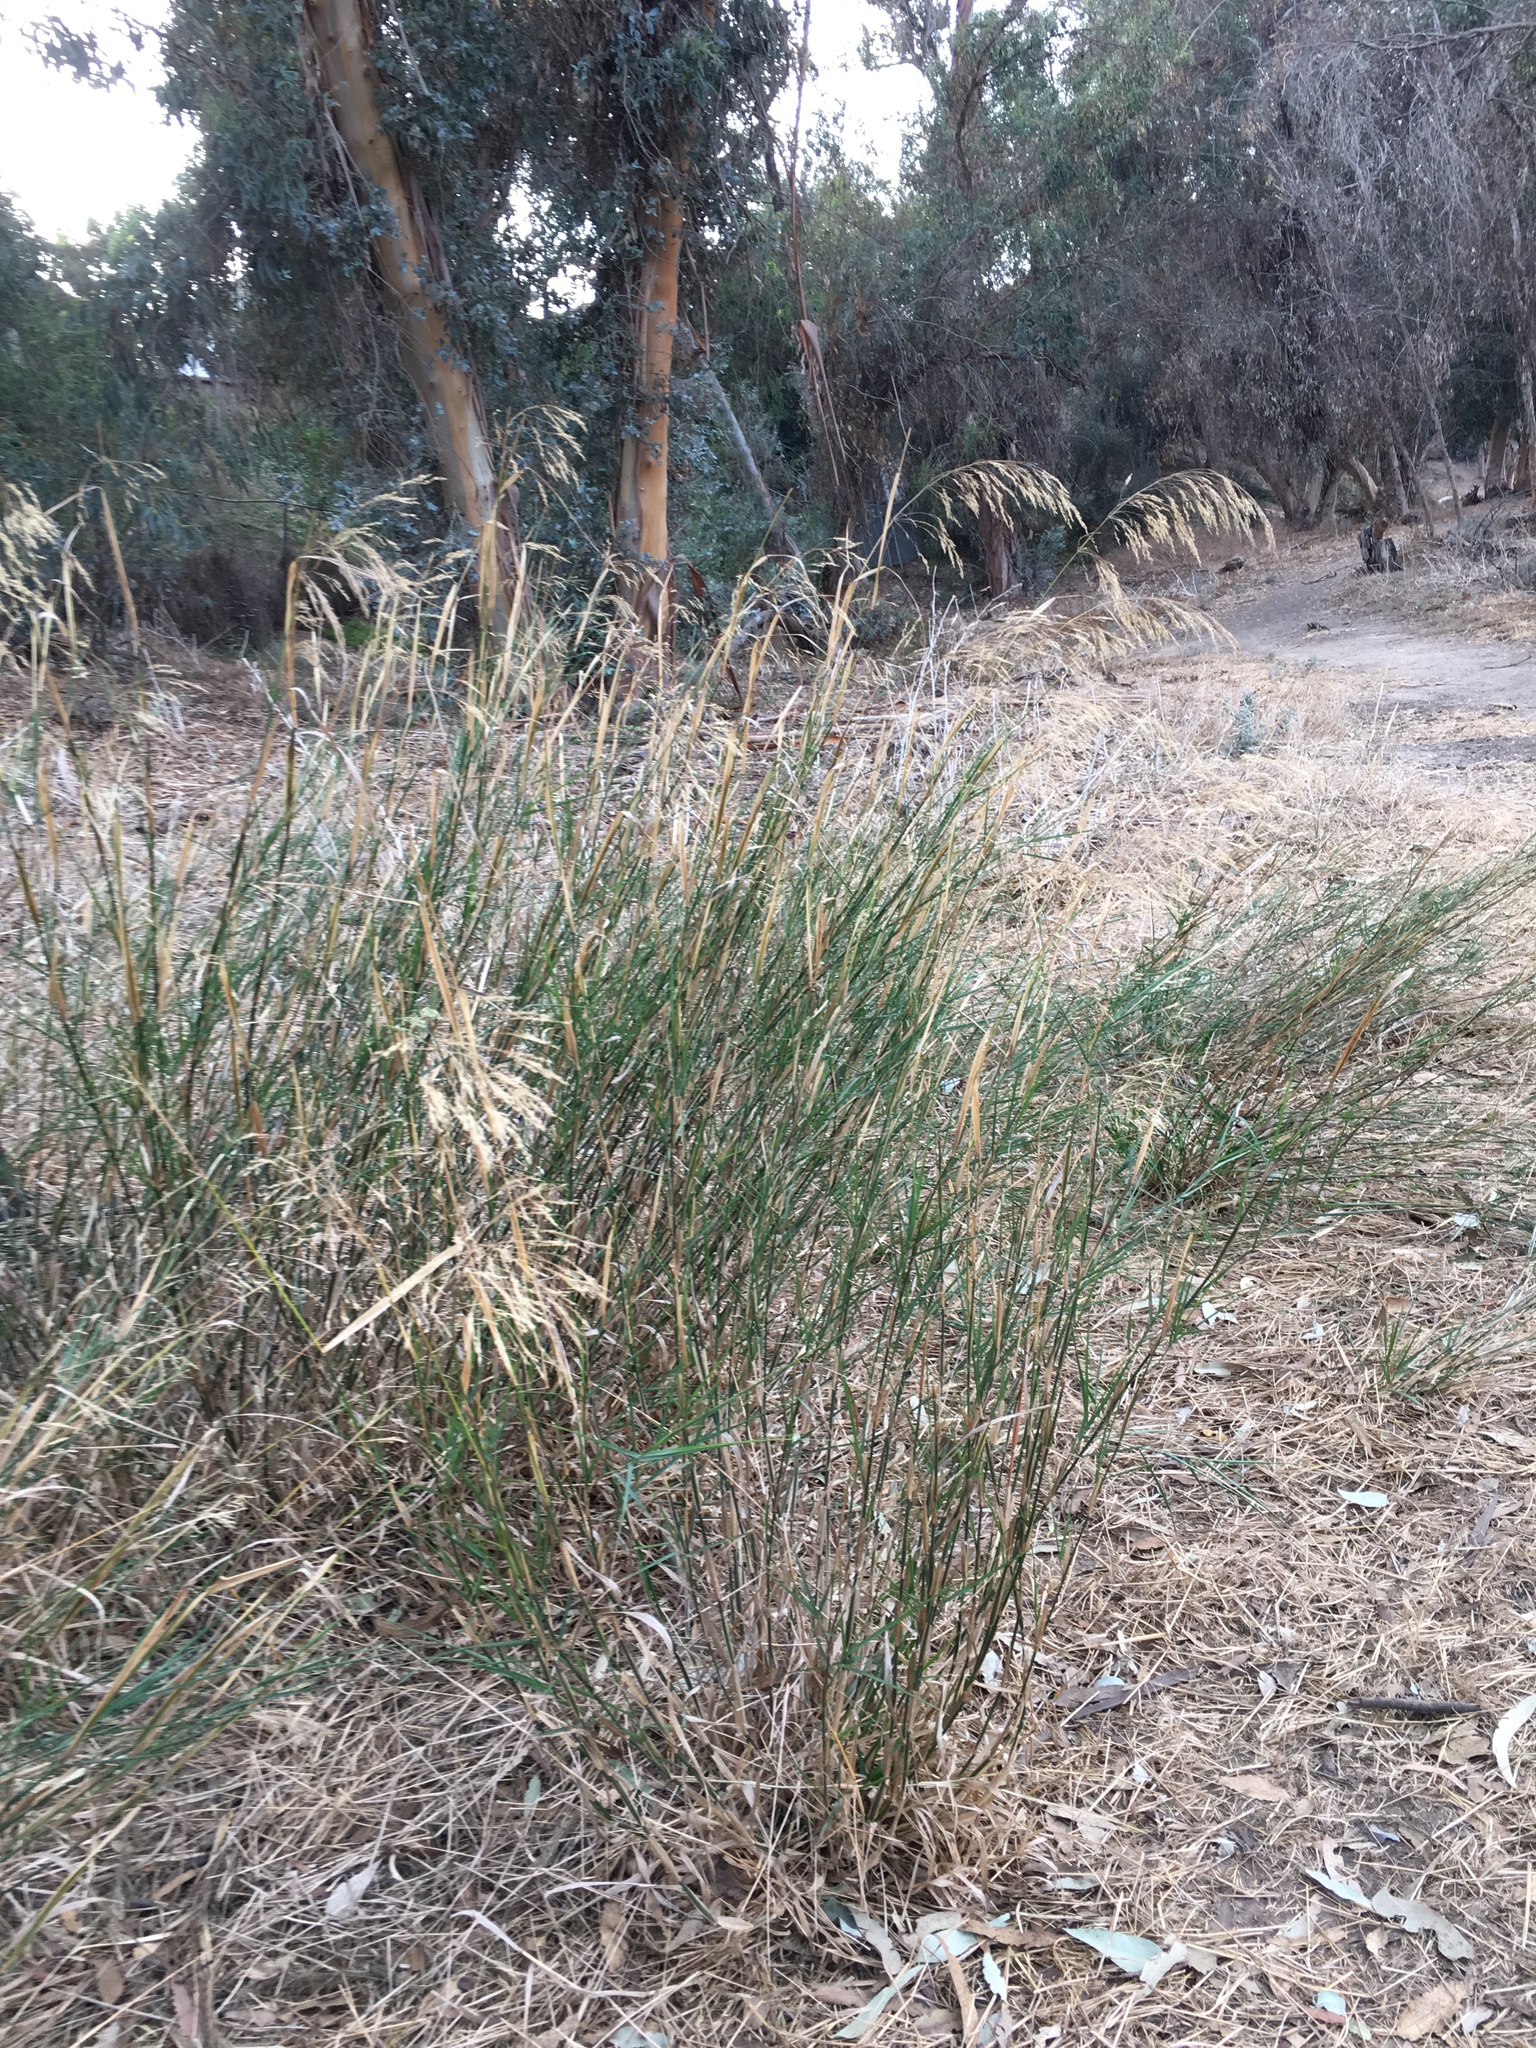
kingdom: Plantae
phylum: Tracheophyta
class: Liliopsida
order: Poales
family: Poaceae
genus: Oloptum
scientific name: Oloptum miliaceum
